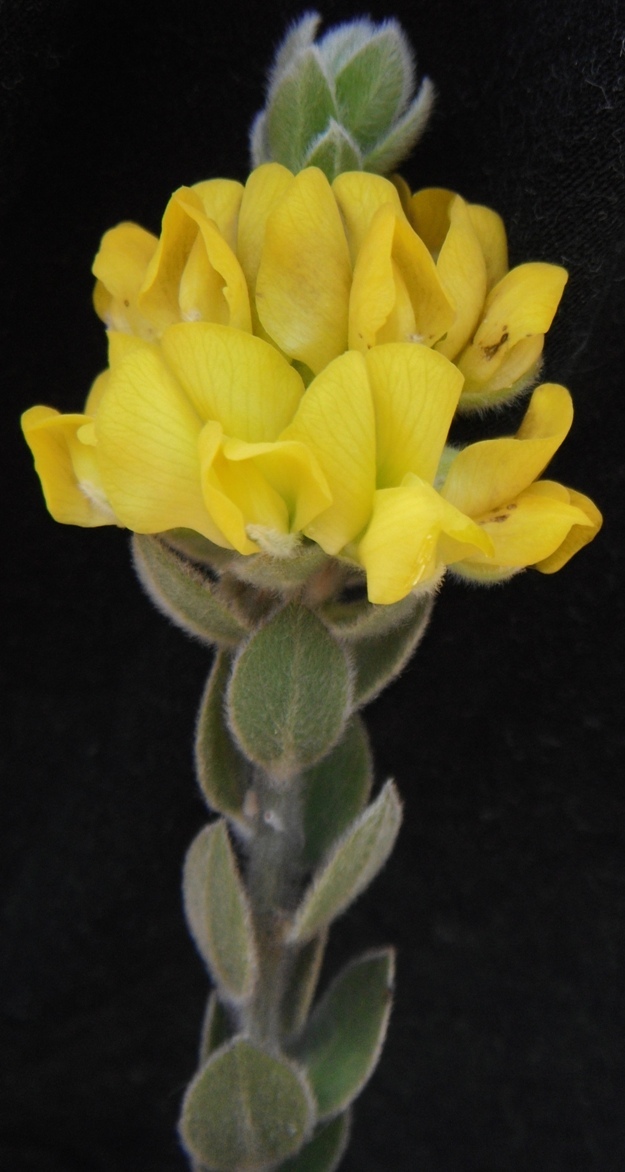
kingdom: Plantae
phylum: Tracheophyta
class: Magnoliopsida
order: Fabales
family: Fabaceae
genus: Xiphotheca
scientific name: Xiphotheca tecta
